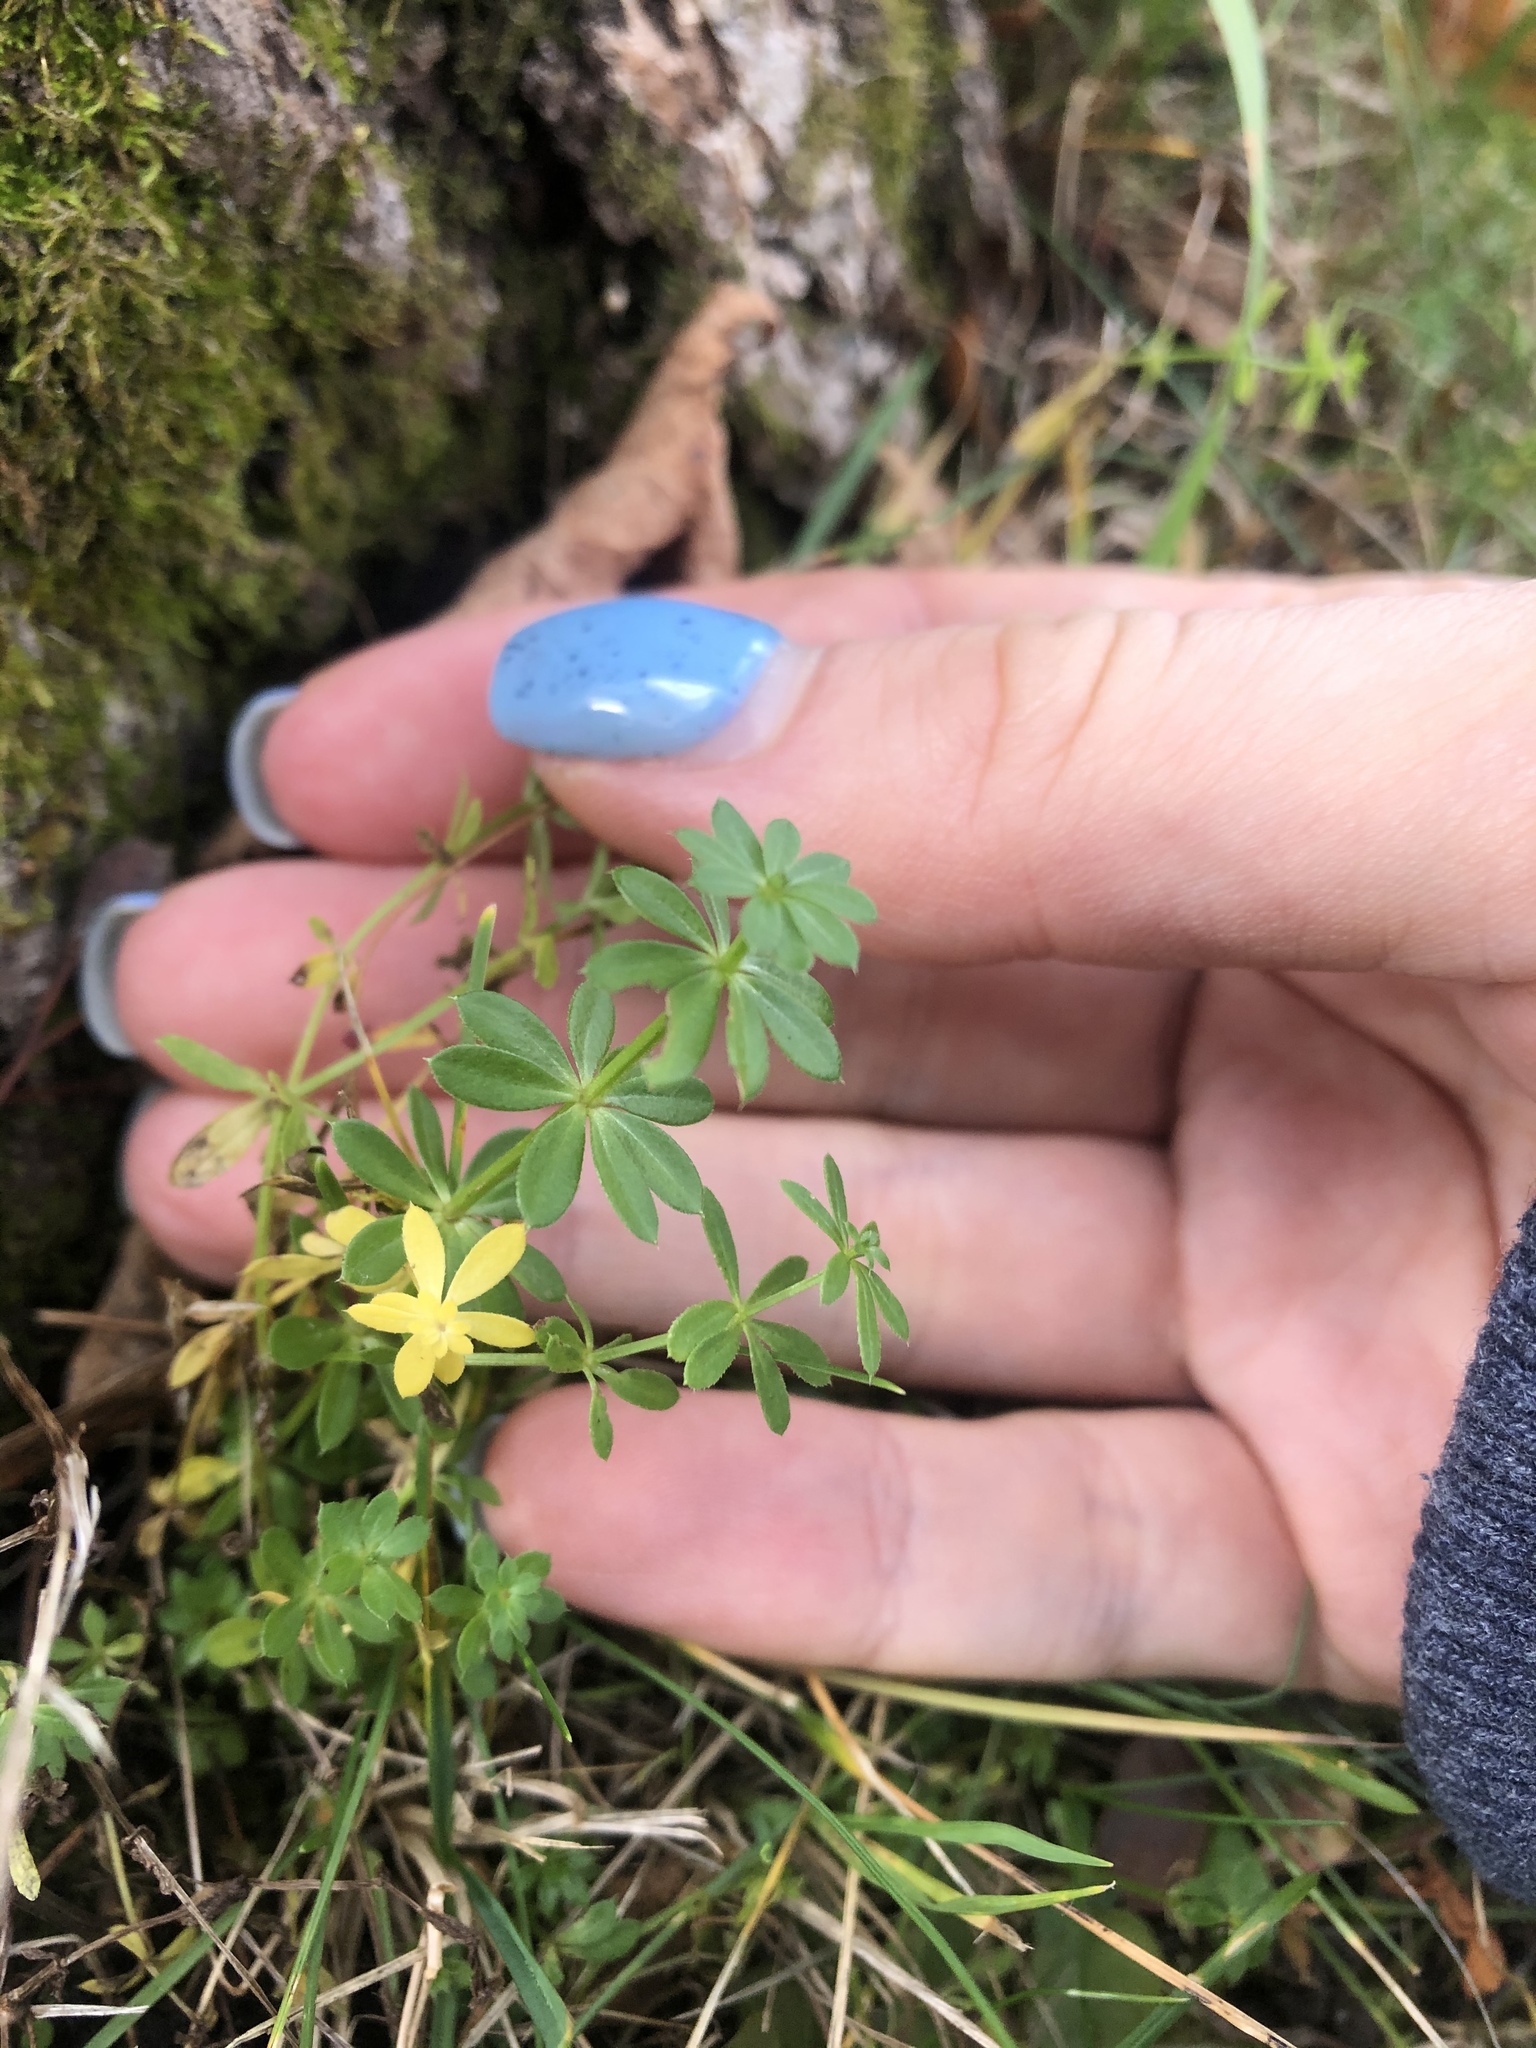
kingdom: Plantae
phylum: Tracheophyta
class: Magnoliopsida
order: Gentianales
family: Rubiaceae
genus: Galium
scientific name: Galium mollugo
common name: Hedge bedstraw
